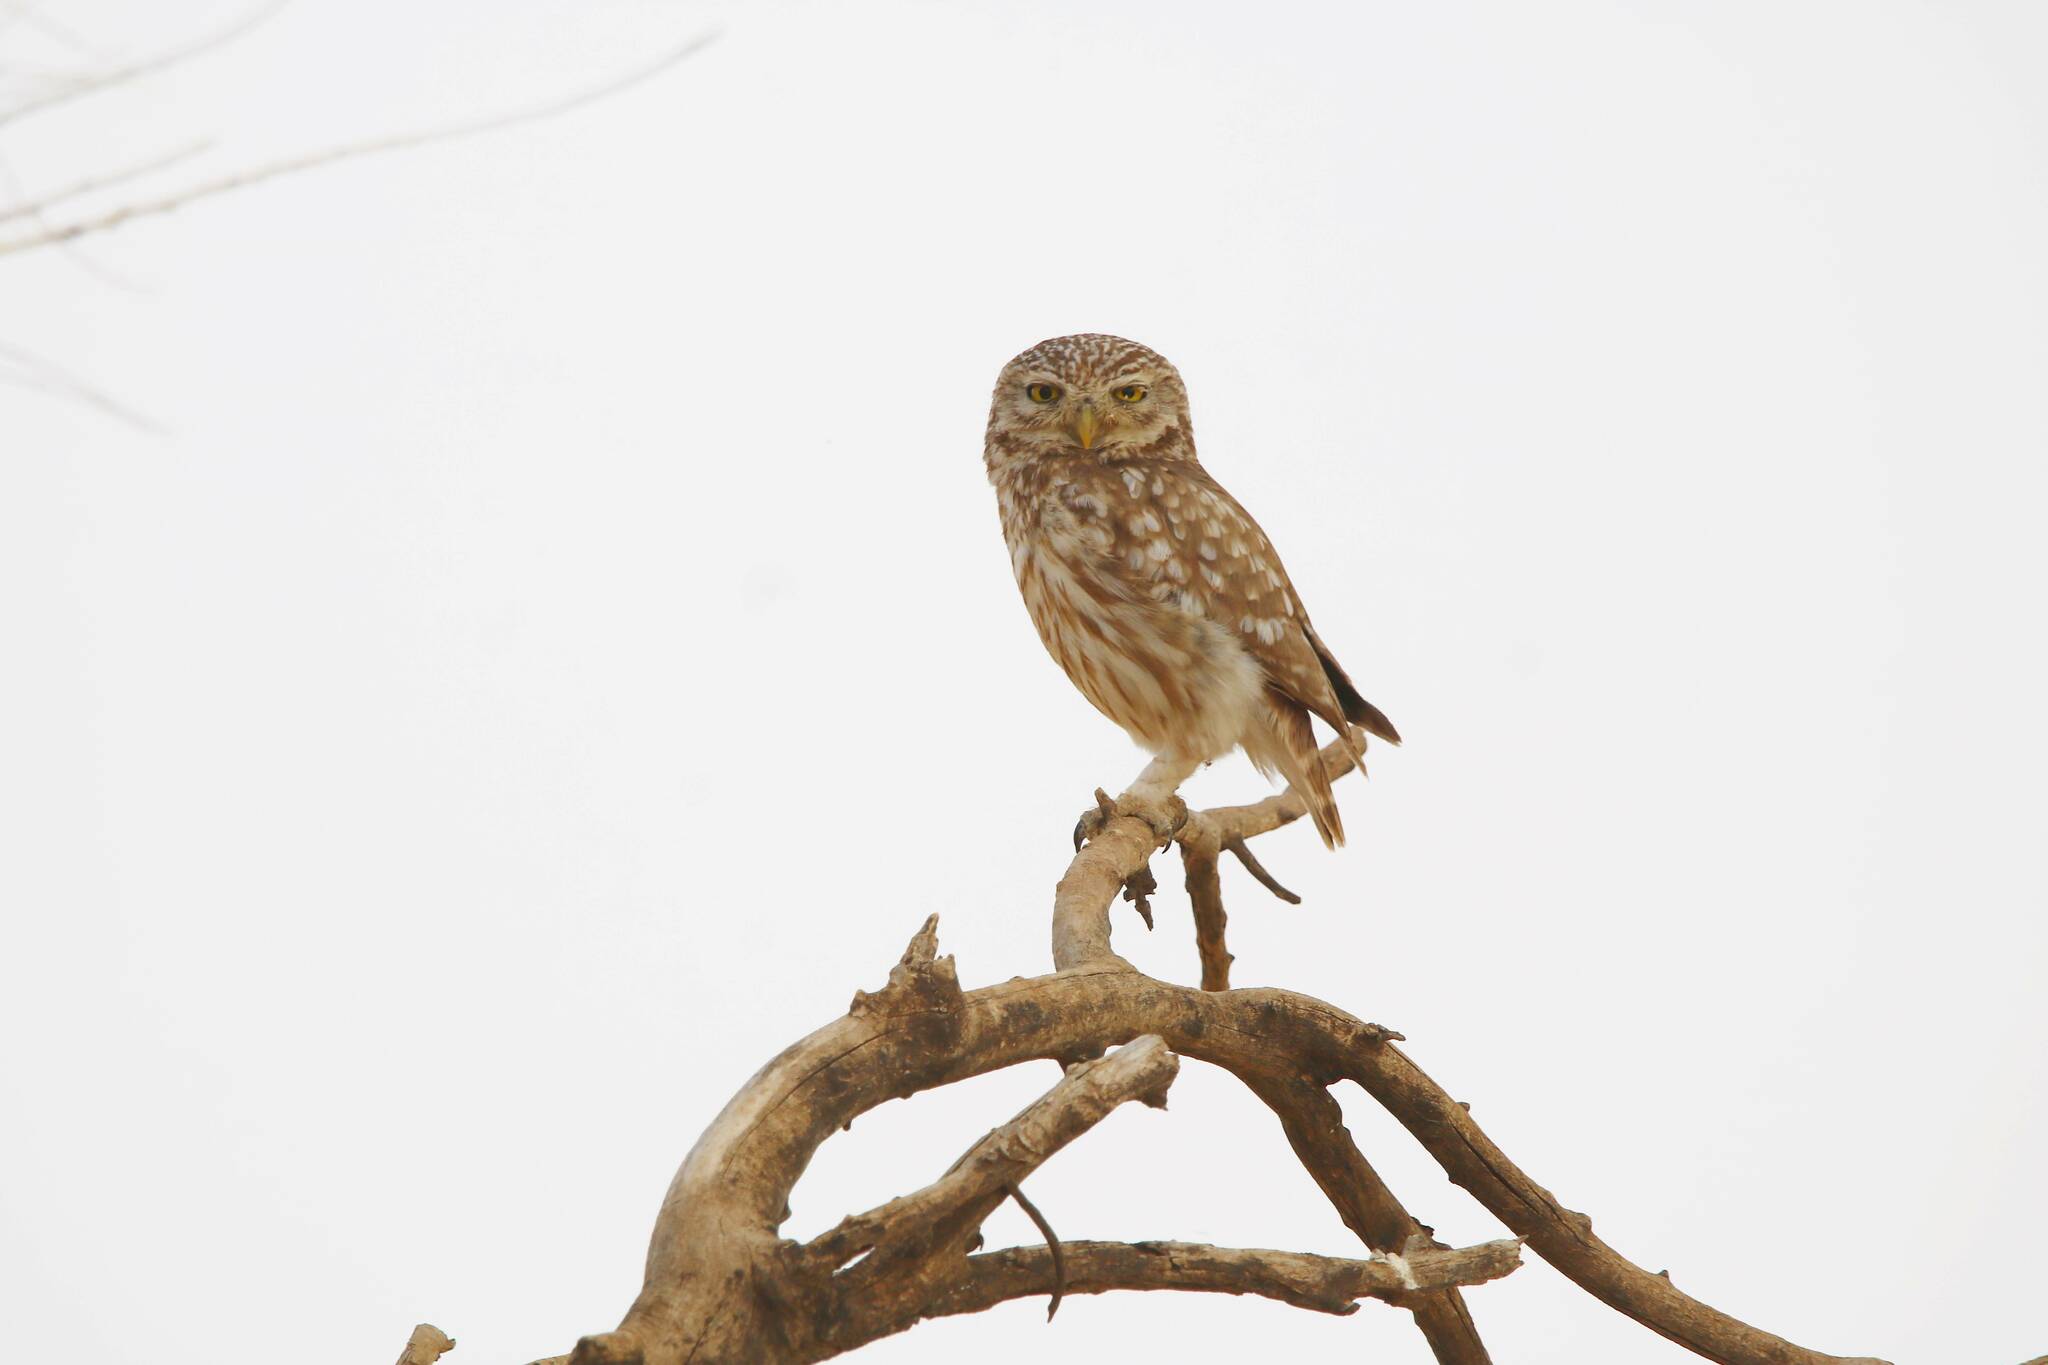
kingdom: Animalia
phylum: Chordata
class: Aves
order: Strigiformes
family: Strigidae
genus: Athene
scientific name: Athene noctua
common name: Little owl
